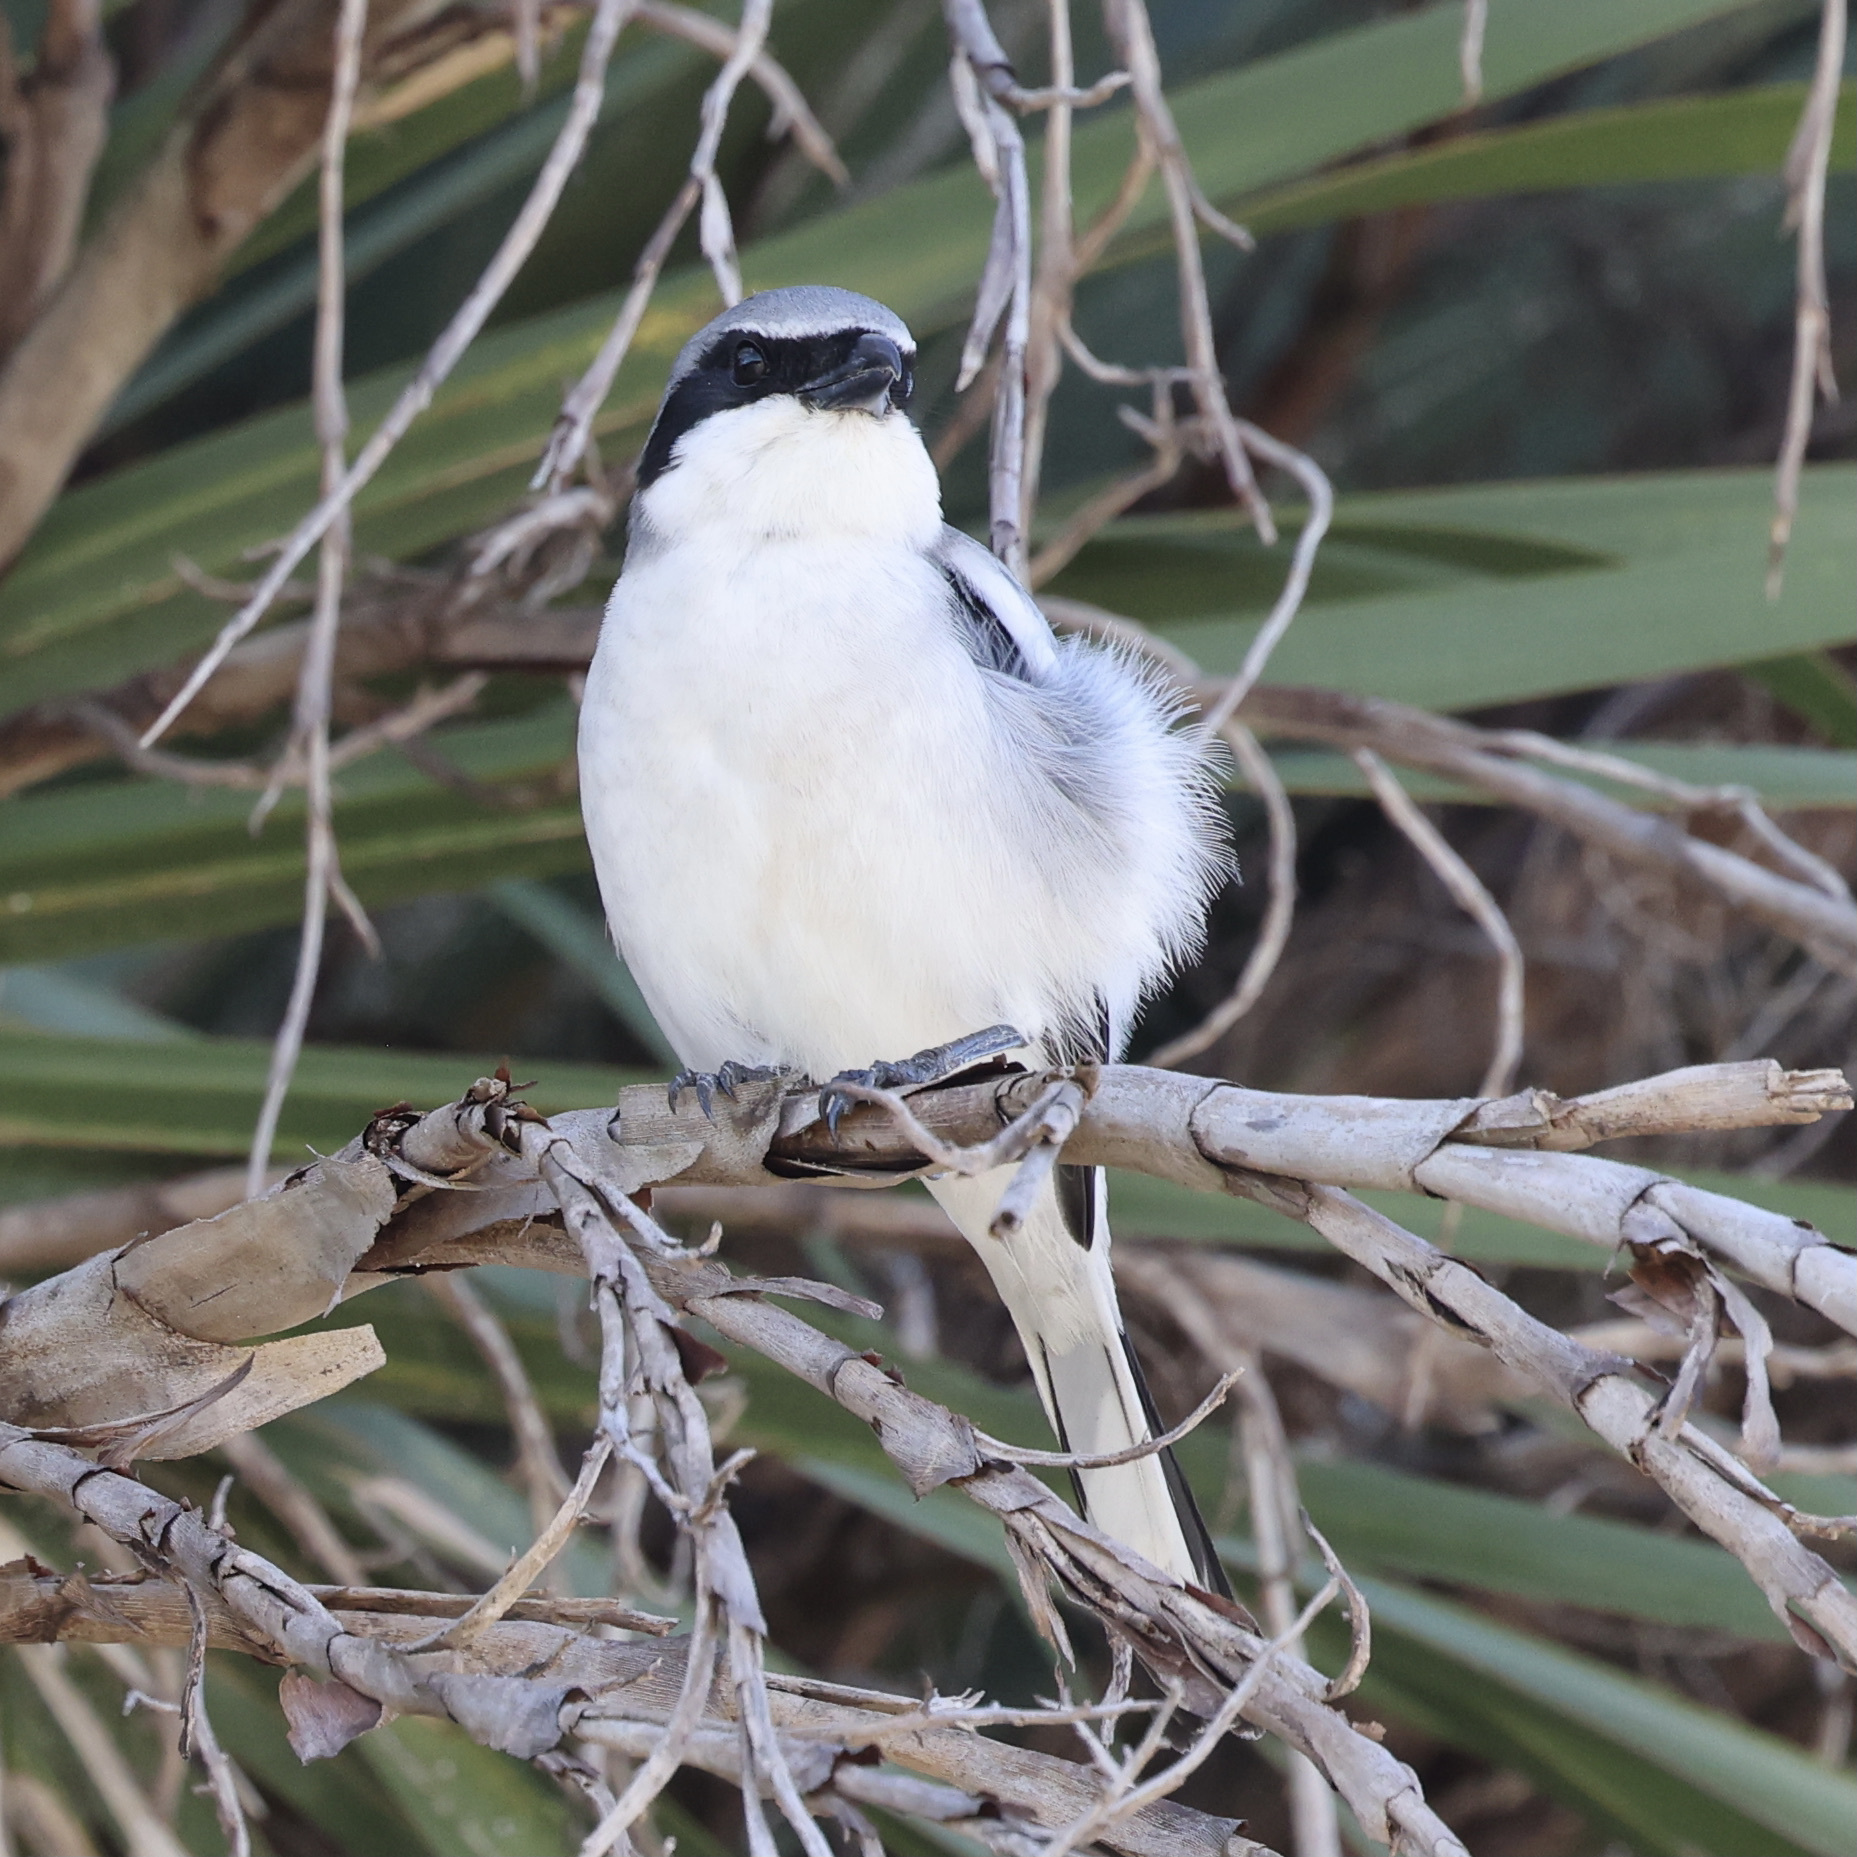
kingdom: Animalia
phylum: Chordata
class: Aves
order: Passeriformes
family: Laniidae
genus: Lanius
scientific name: Lanius ludovicianus
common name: Loggerhead shrike
